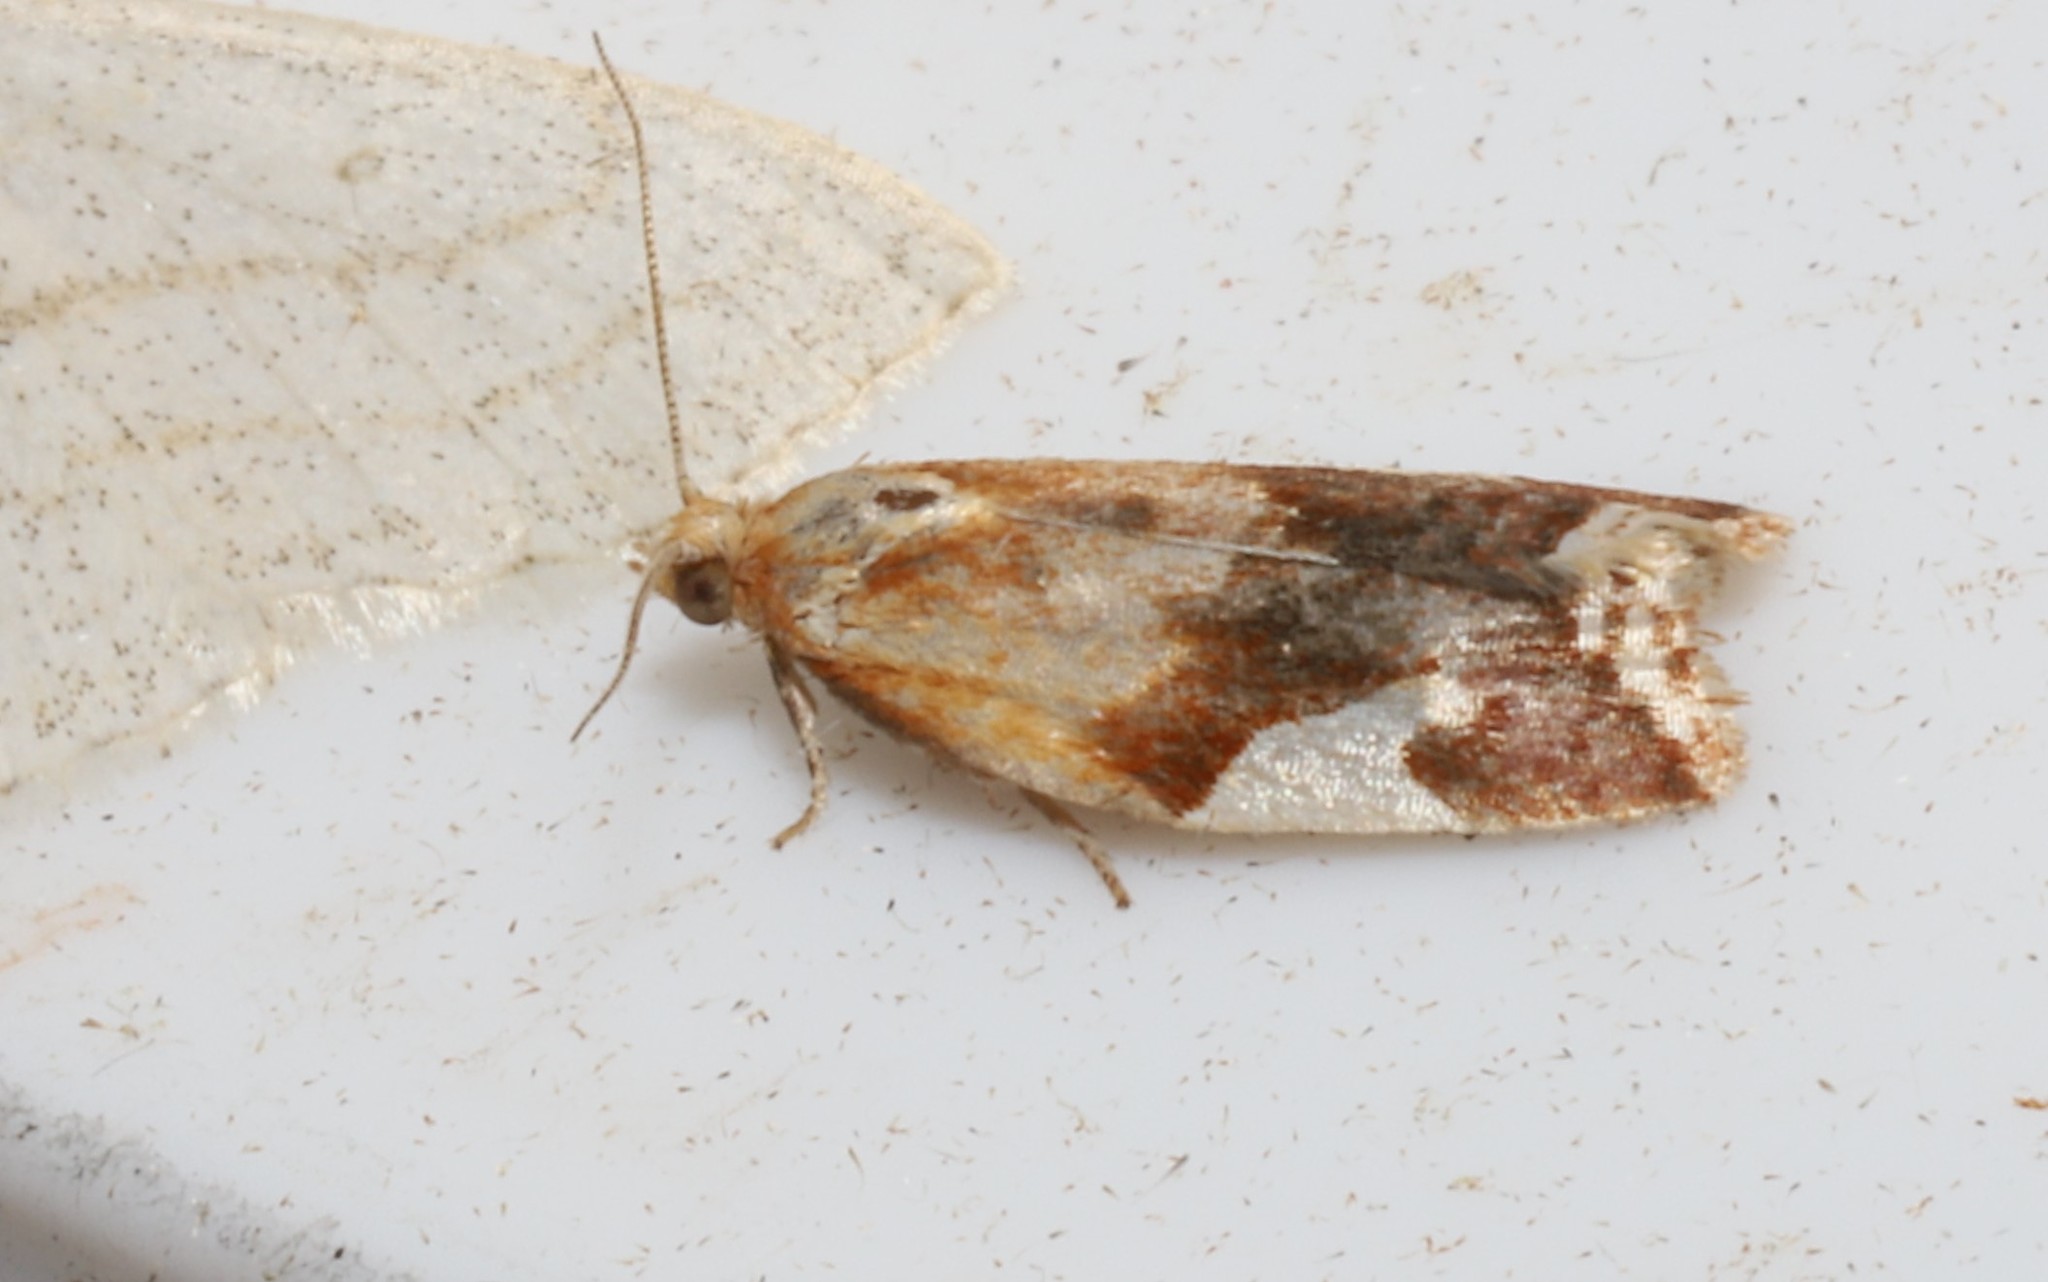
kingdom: Animalia
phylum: Arthropoda
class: Insecta
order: Lepidoptera
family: Tortricidae
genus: Clepsis
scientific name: Clepsis persicana
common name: White triangle tortrix
